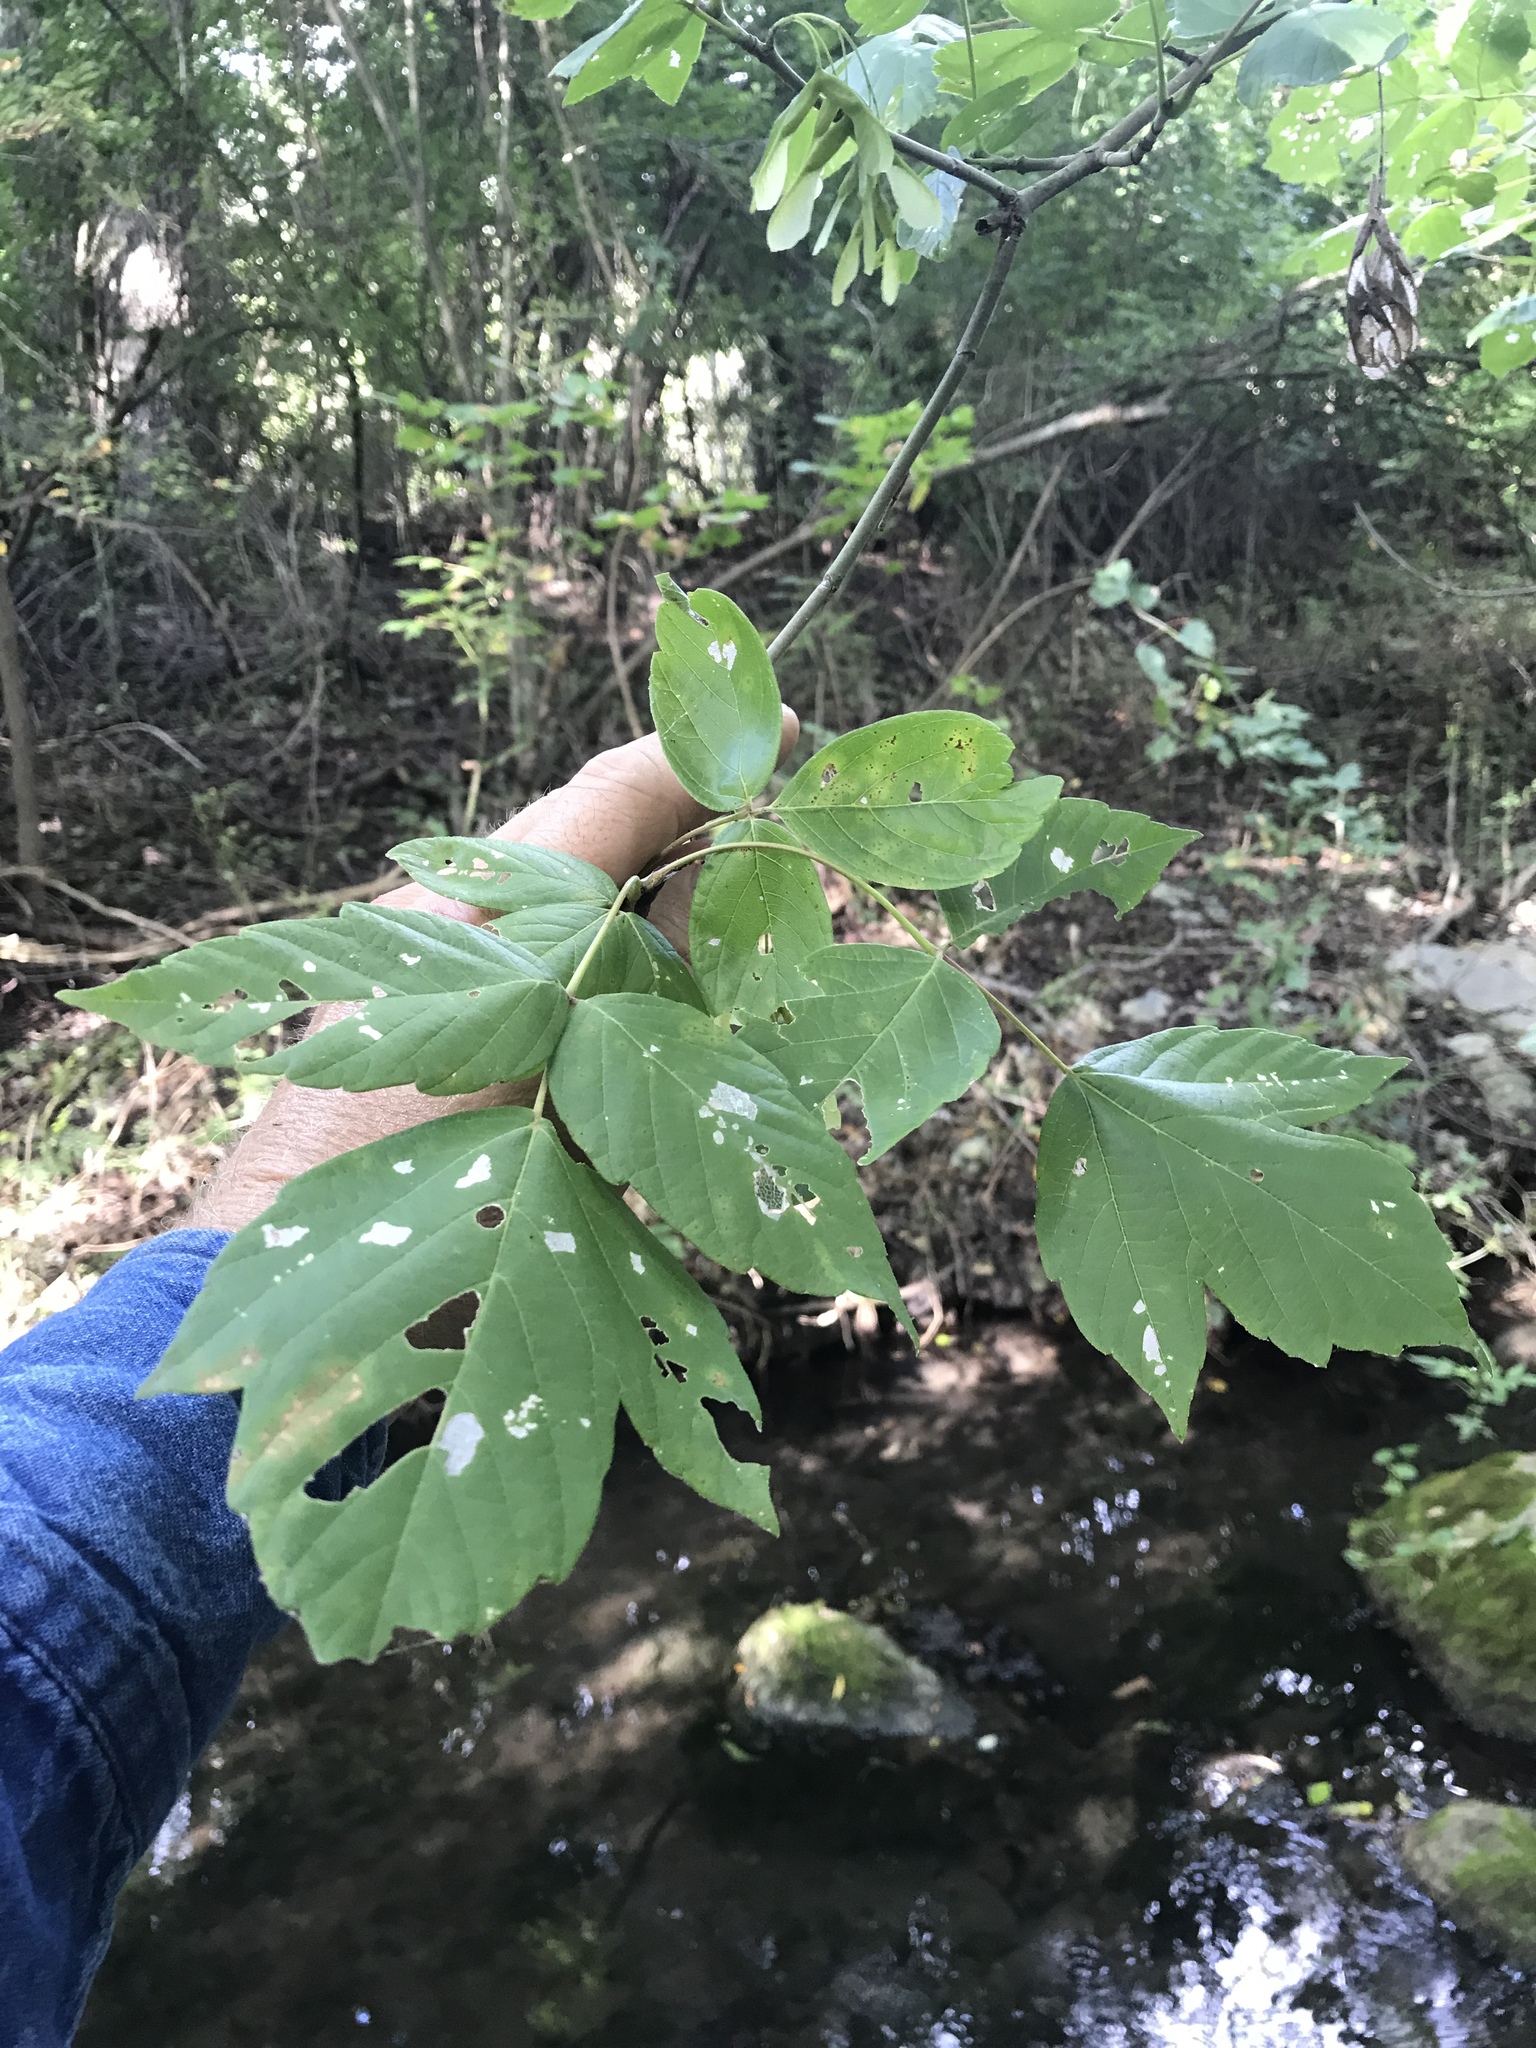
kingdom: Plantae
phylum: Tracheophyta
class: Magnoliopsida
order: Sapindales
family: Sapindaceae
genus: Acer
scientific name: Acer negundo
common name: Ashleaf maple
